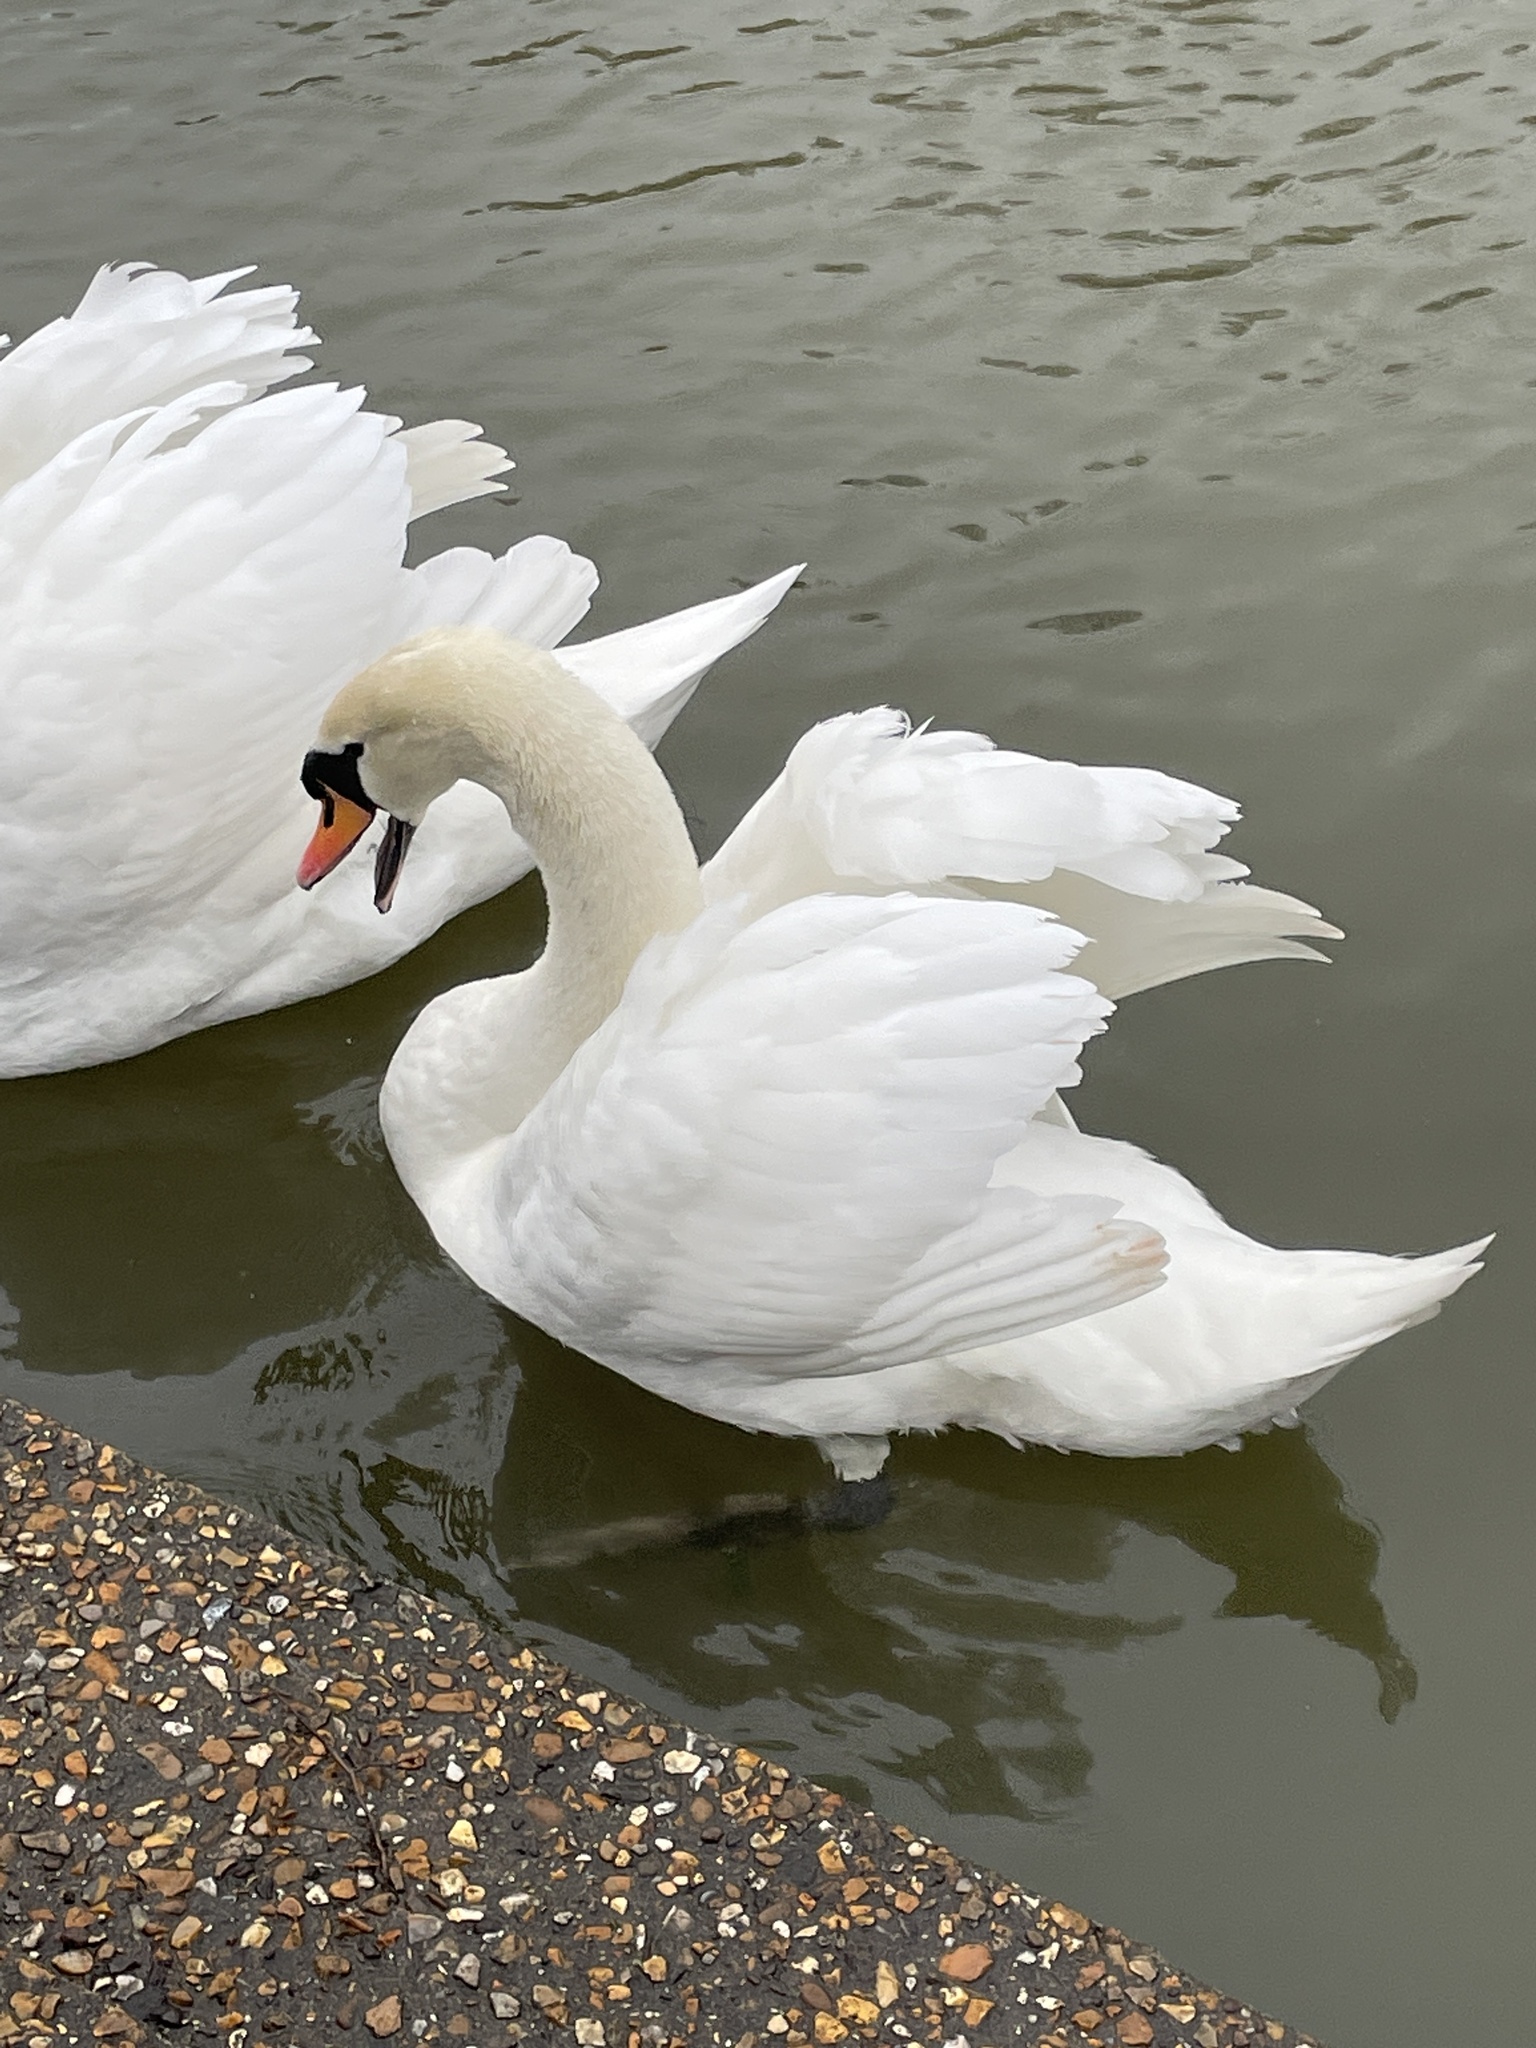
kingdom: Animalia
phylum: Chordata
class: Aves
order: Anseriformes
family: Anatidae
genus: Cygnus
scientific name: Cygnus olor
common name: Mute swan
